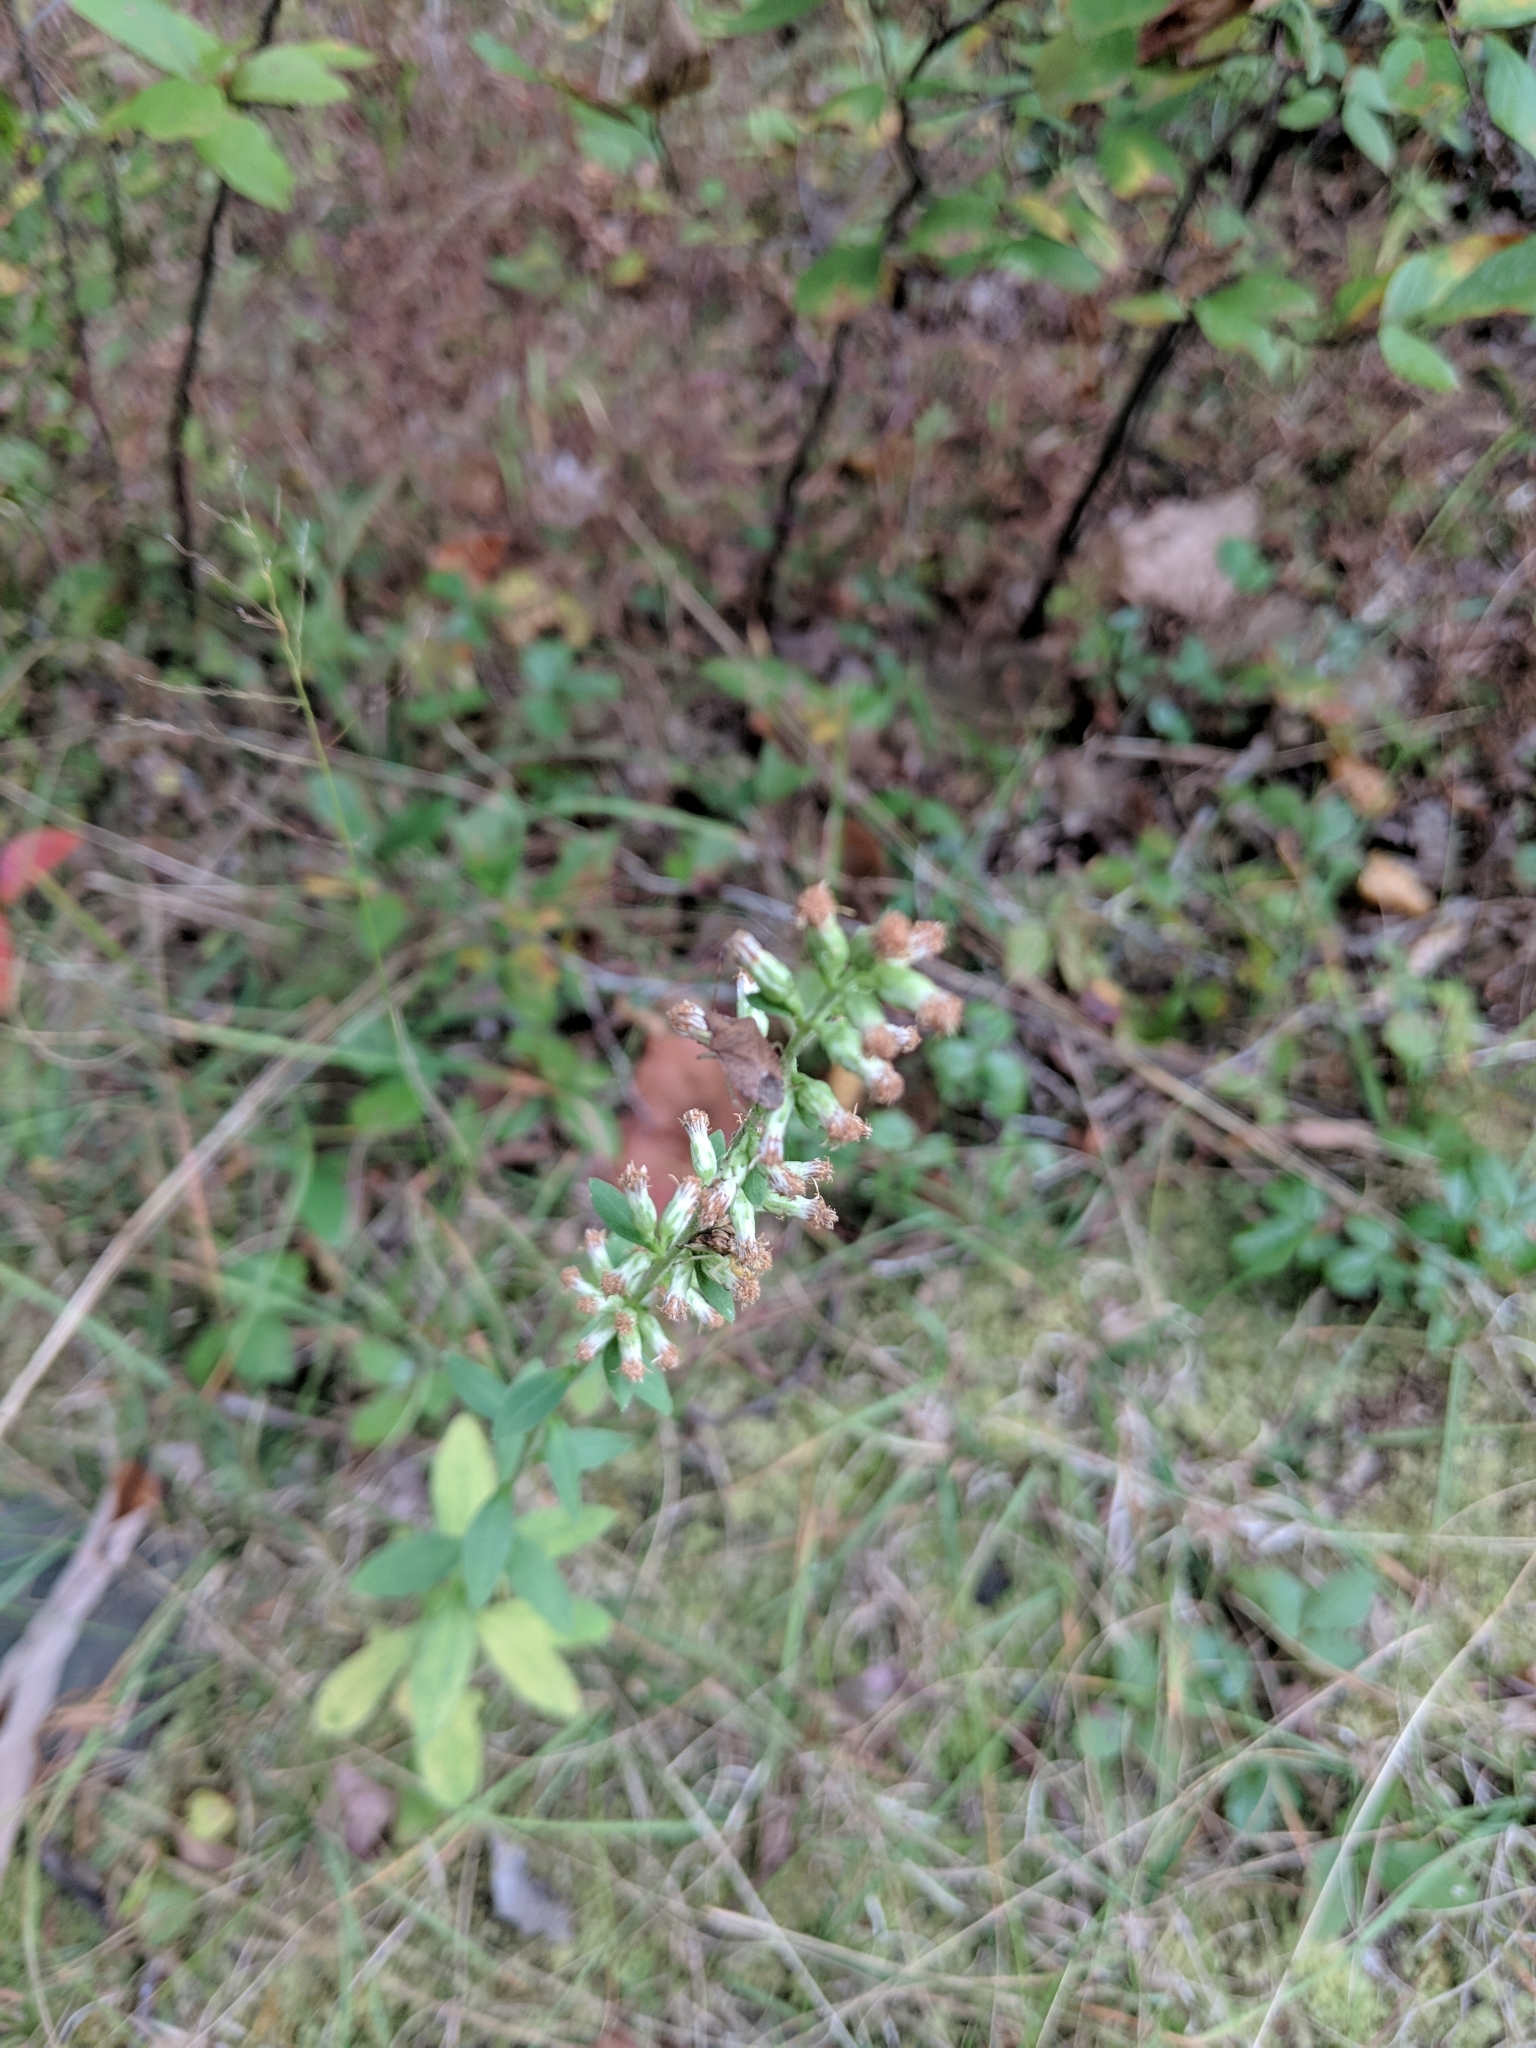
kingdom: Plantae
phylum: Tracheophyta
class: Magnoliopsida
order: Asterales
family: Asteraceae
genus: Solidago
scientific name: Solidago bicolor
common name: Silverrod
